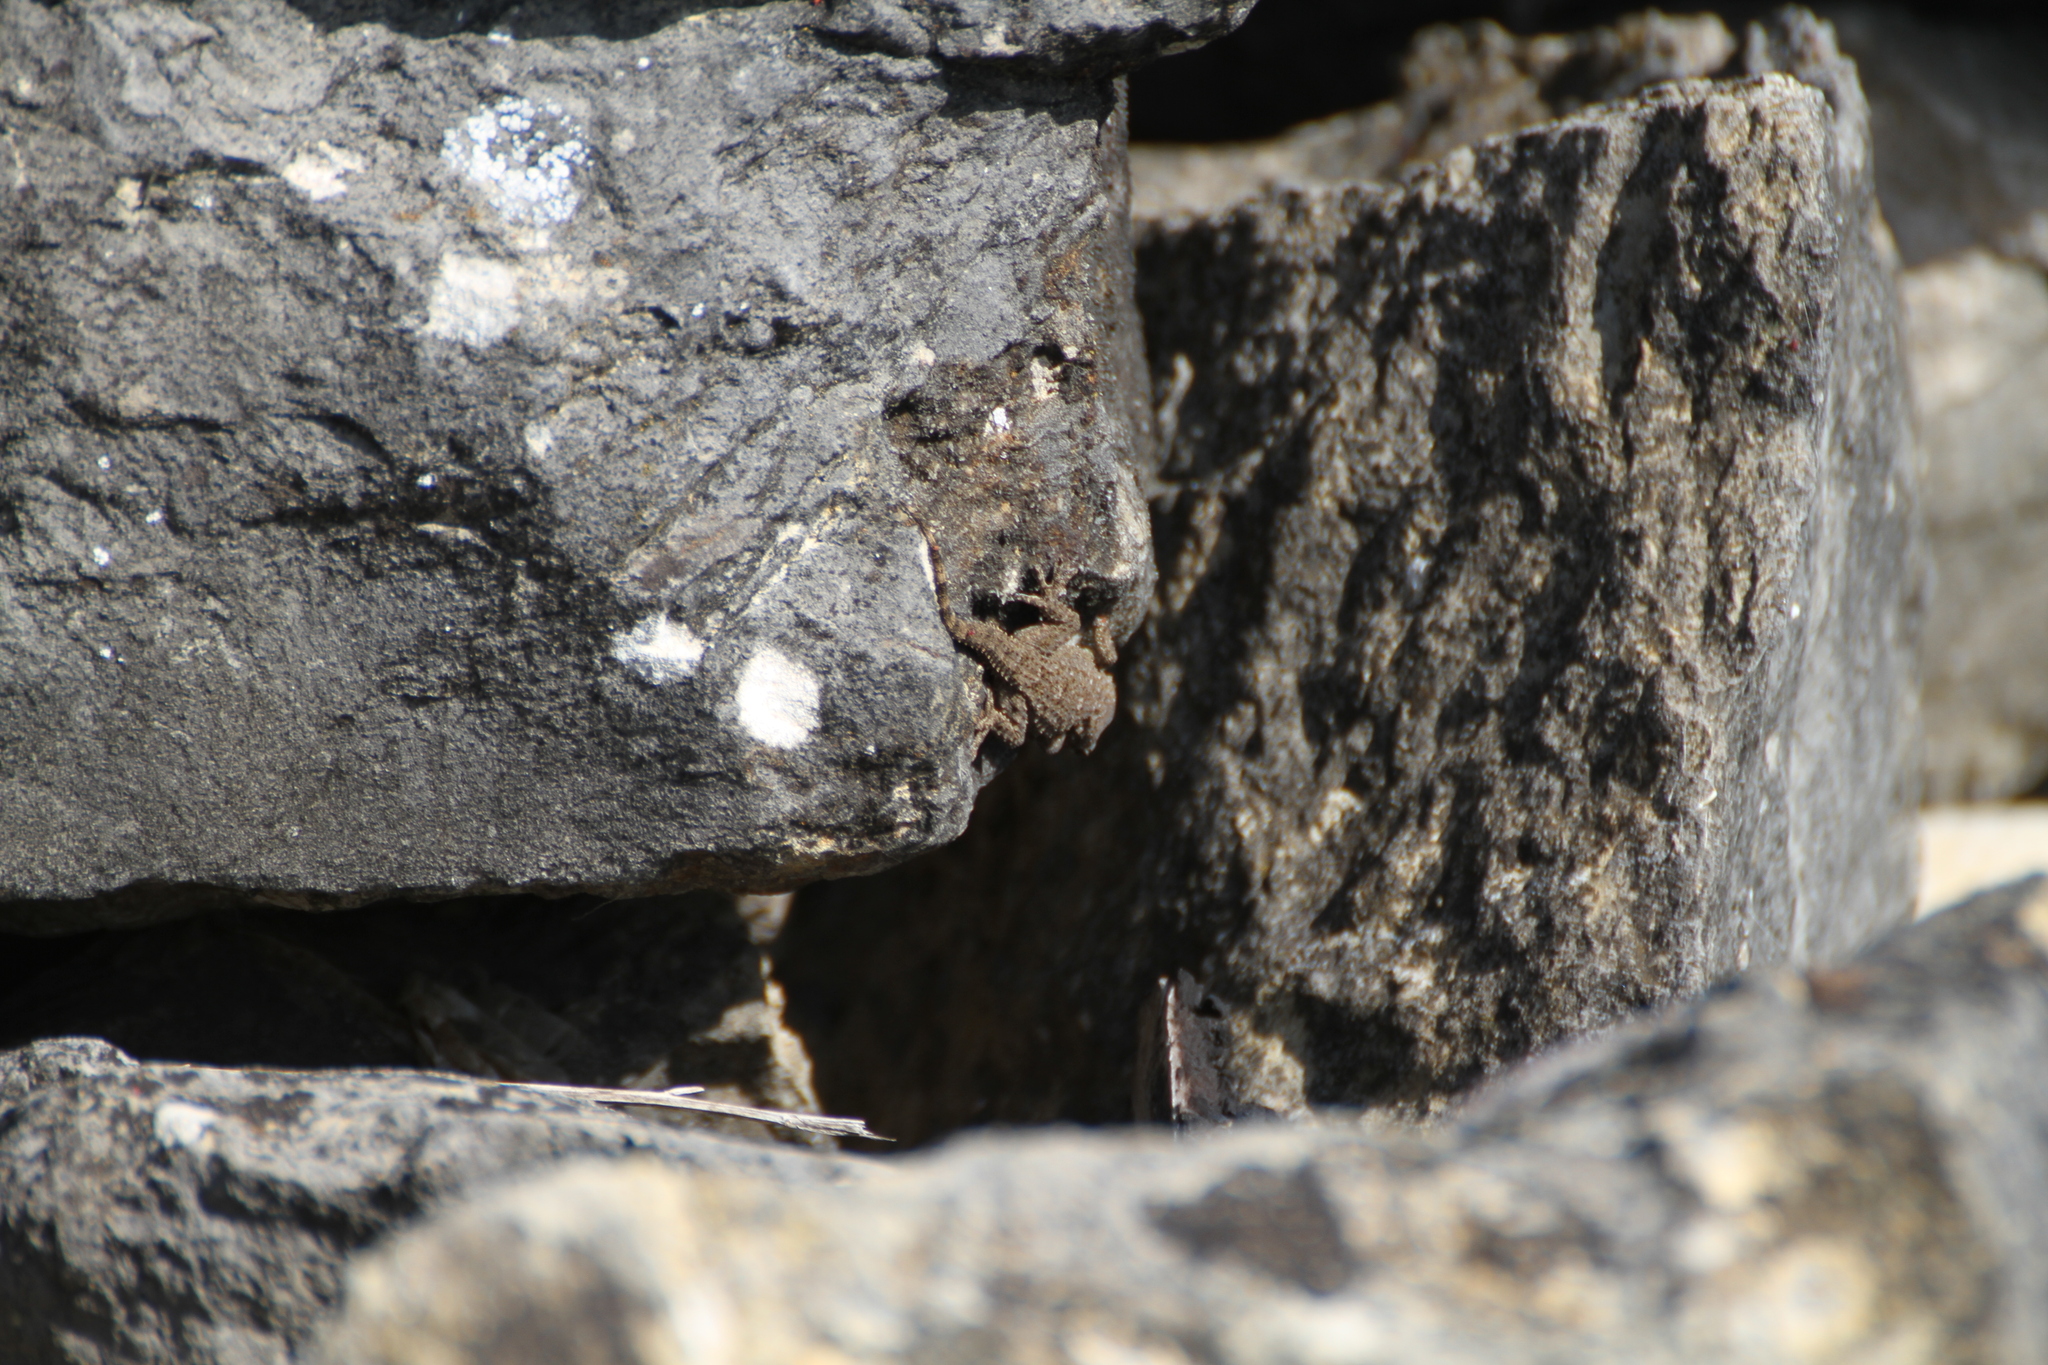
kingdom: Animalia
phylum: Chordata
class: Squamata
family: Phyllodactylidae
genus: Tarentola
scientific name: Tarentola mauritanica
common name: Moorish gecko
